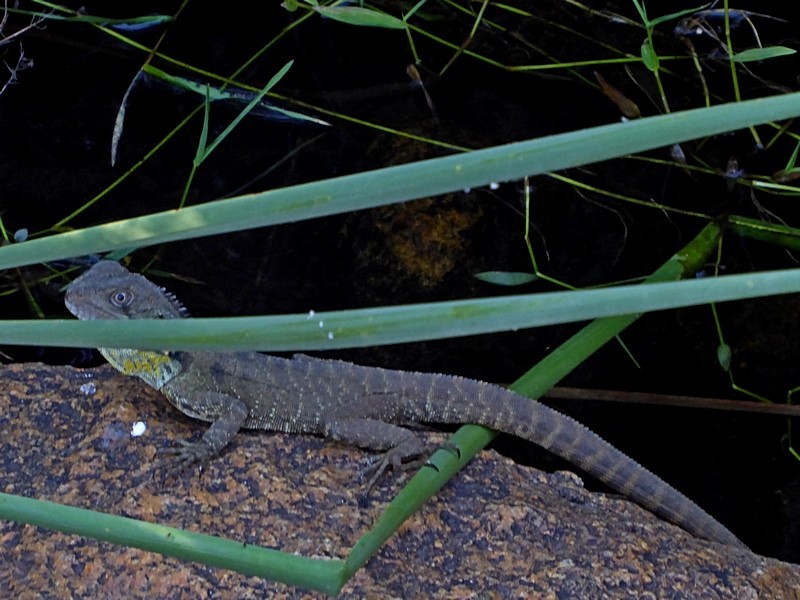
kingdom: Animalia
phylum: Chordata
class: Squamata
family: Agamidae
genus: Intellagama
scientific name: Intellagama lesueurii
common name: Eastern water dragon
